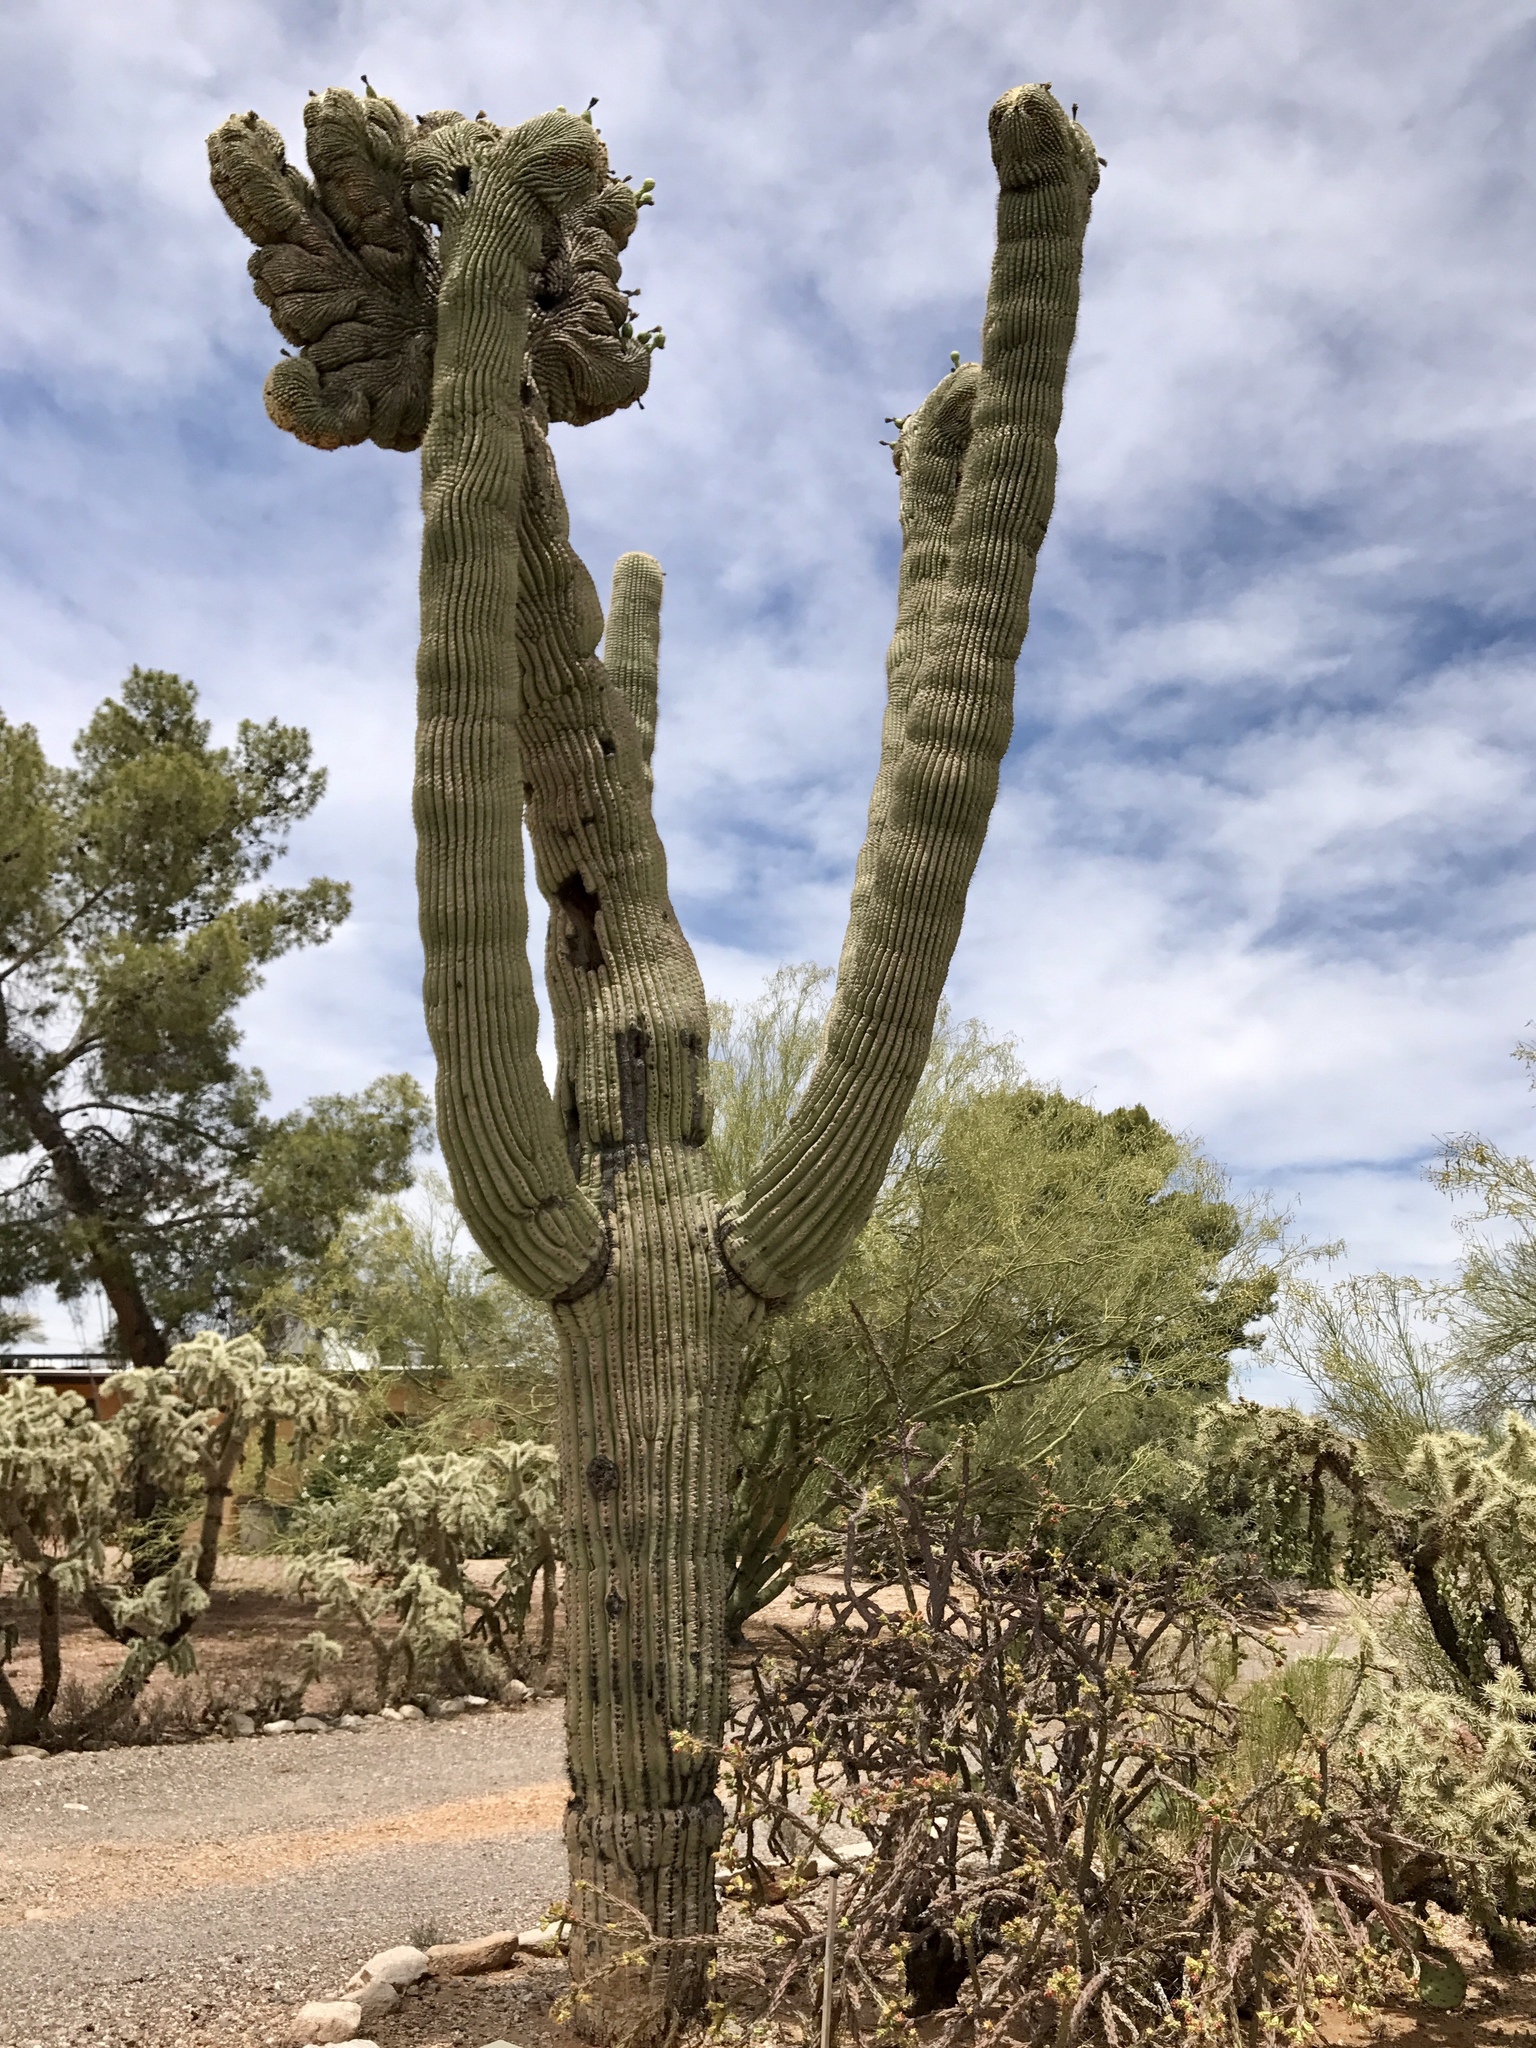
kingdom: Plantae
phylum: Tracheophyta
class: Magnoliopsida
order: Caryophyllales
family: Cactaceae
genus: Carnegiea
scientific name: Carnegiea gigantea
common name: Saguaro
